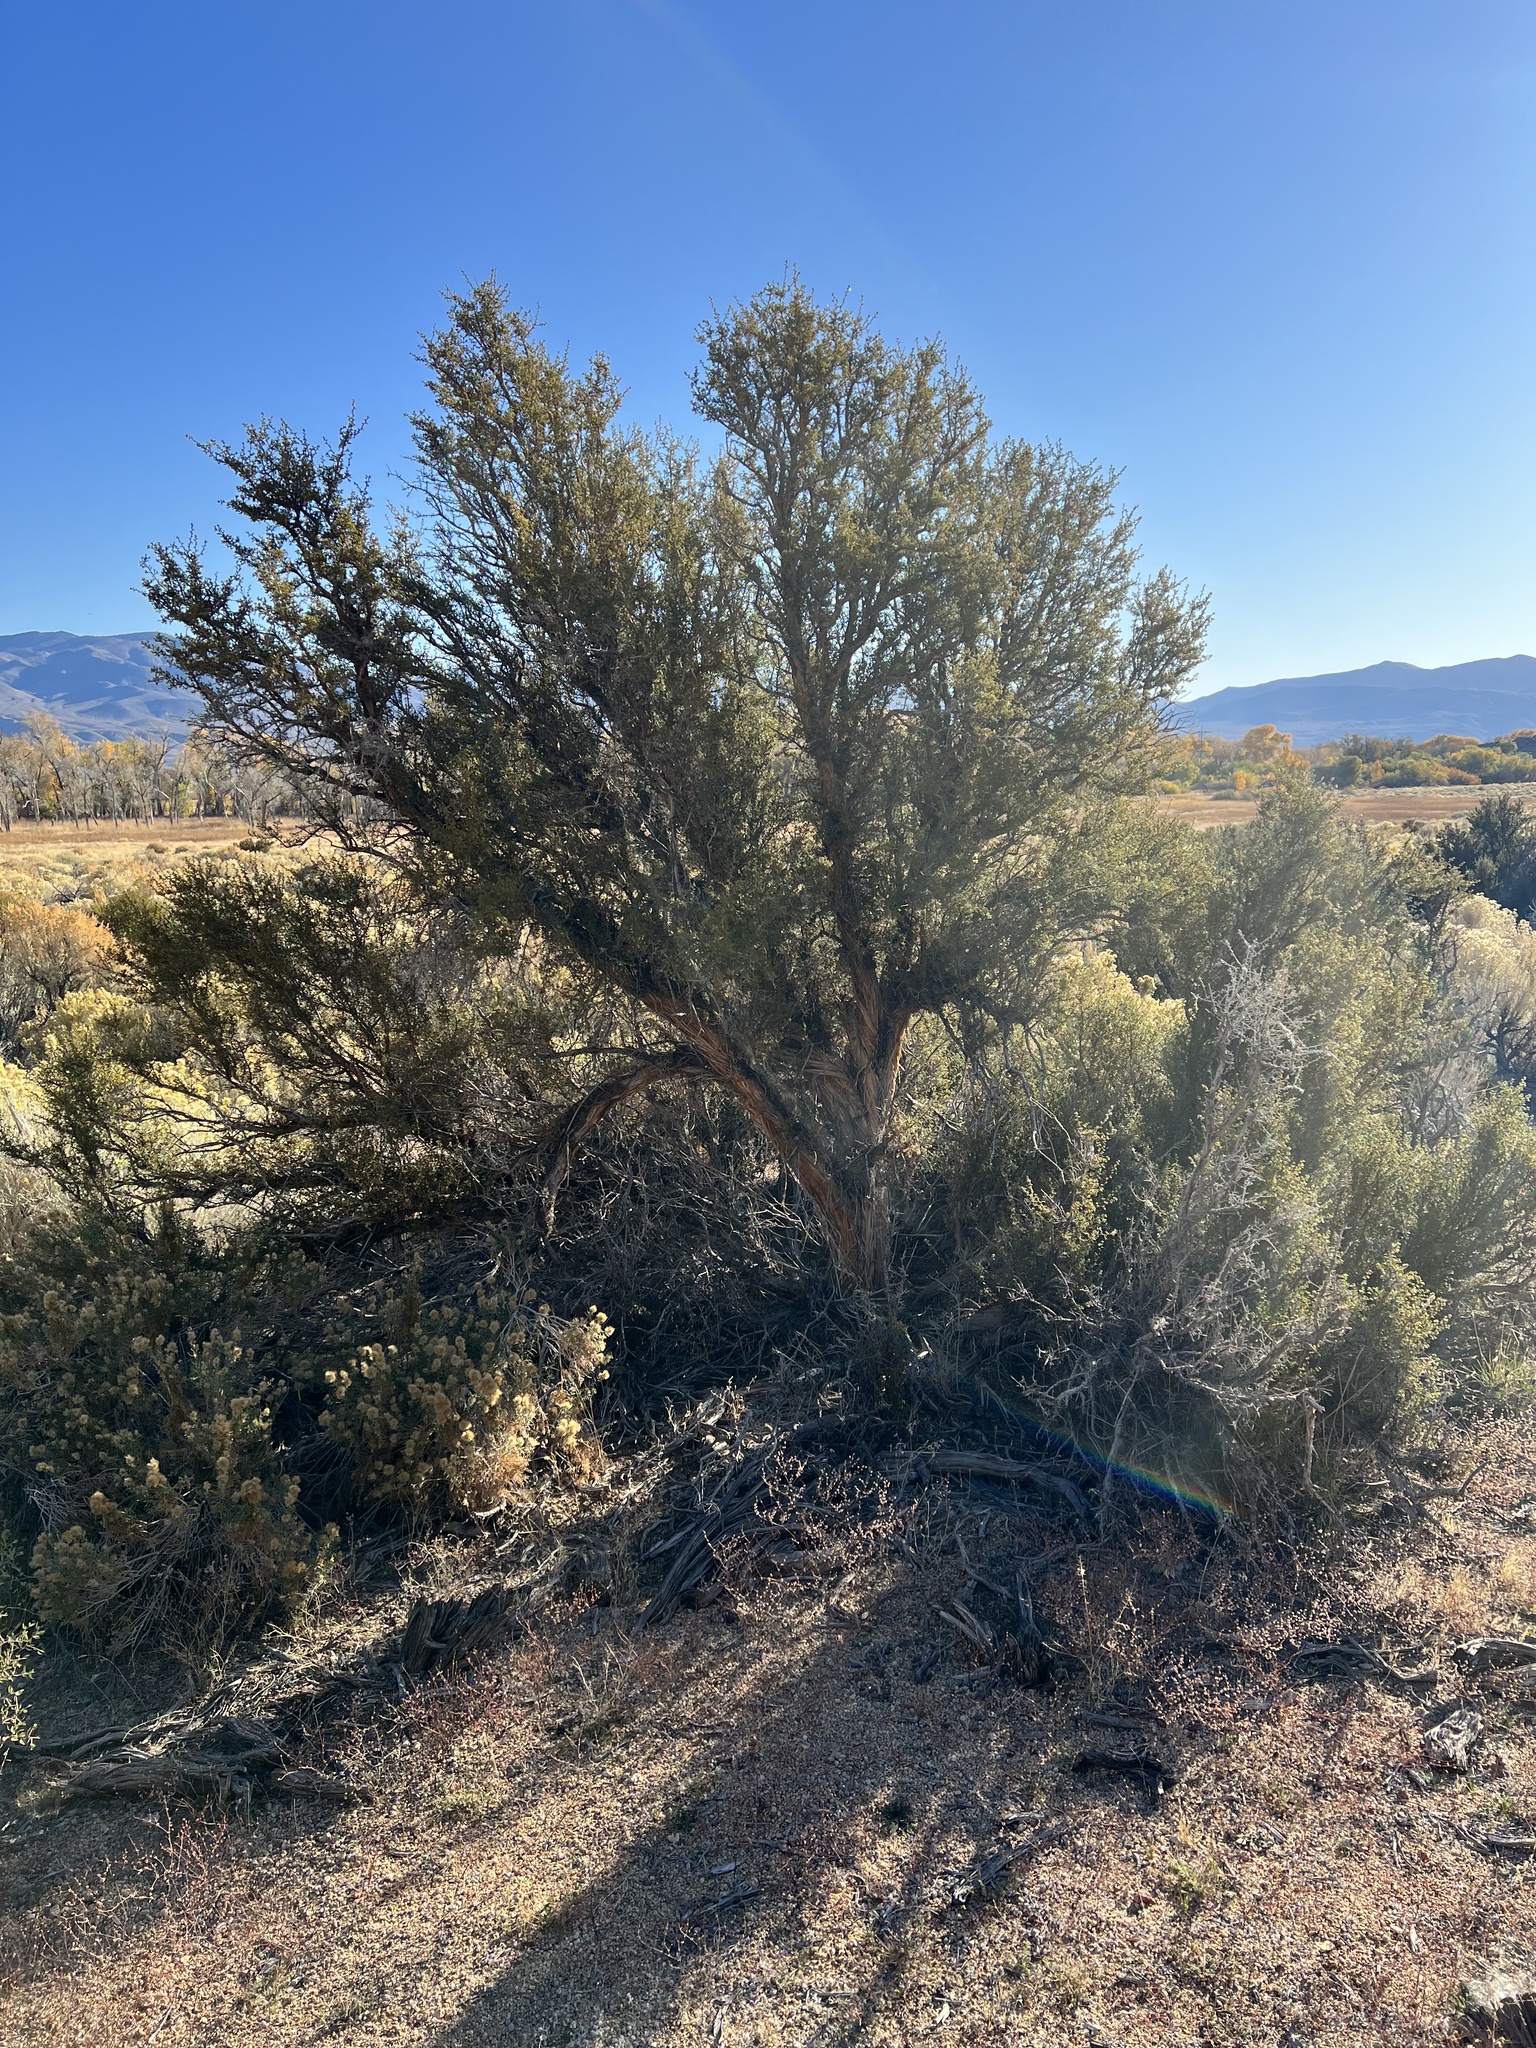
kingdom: Plantae
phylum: Tracheophyta
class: Magnoliopsida
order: Rosales
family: Rosaceae
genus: Purshia
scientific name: Purshia glandulosa
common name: Desert bitterbrush
